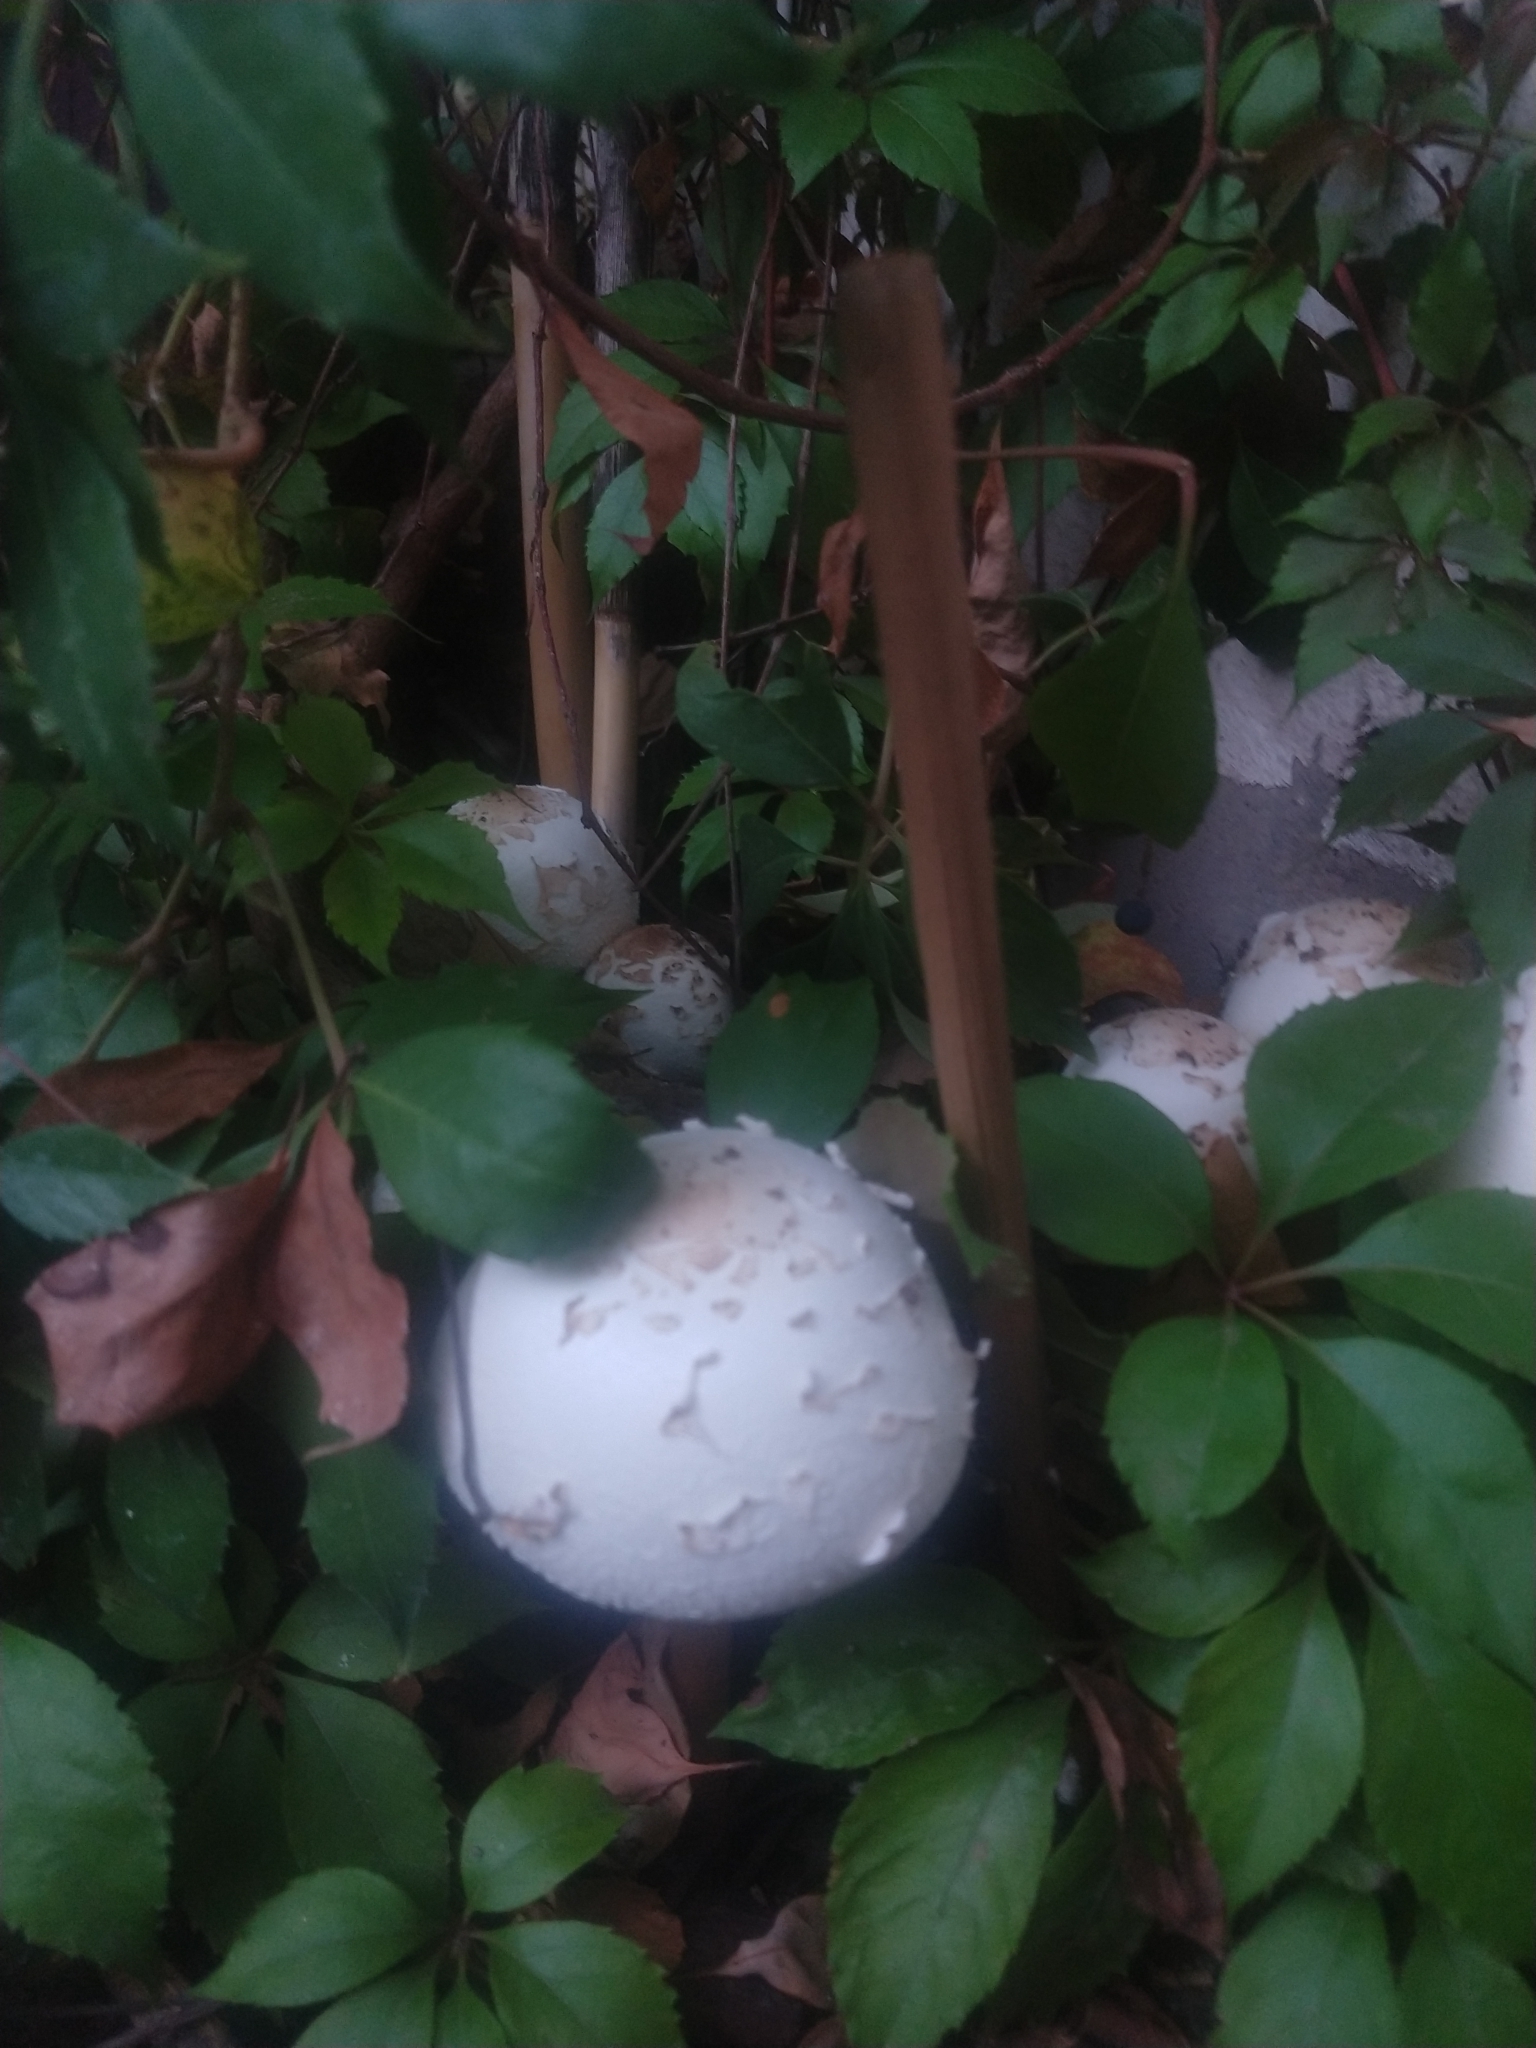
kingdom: Fungi
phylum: Basidiomycota
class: Agaricomycetes
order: Agaricales
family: Agaricaceae
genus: Chlorophyllum
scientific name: Chlorophyllum molybdites
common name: False parasol
